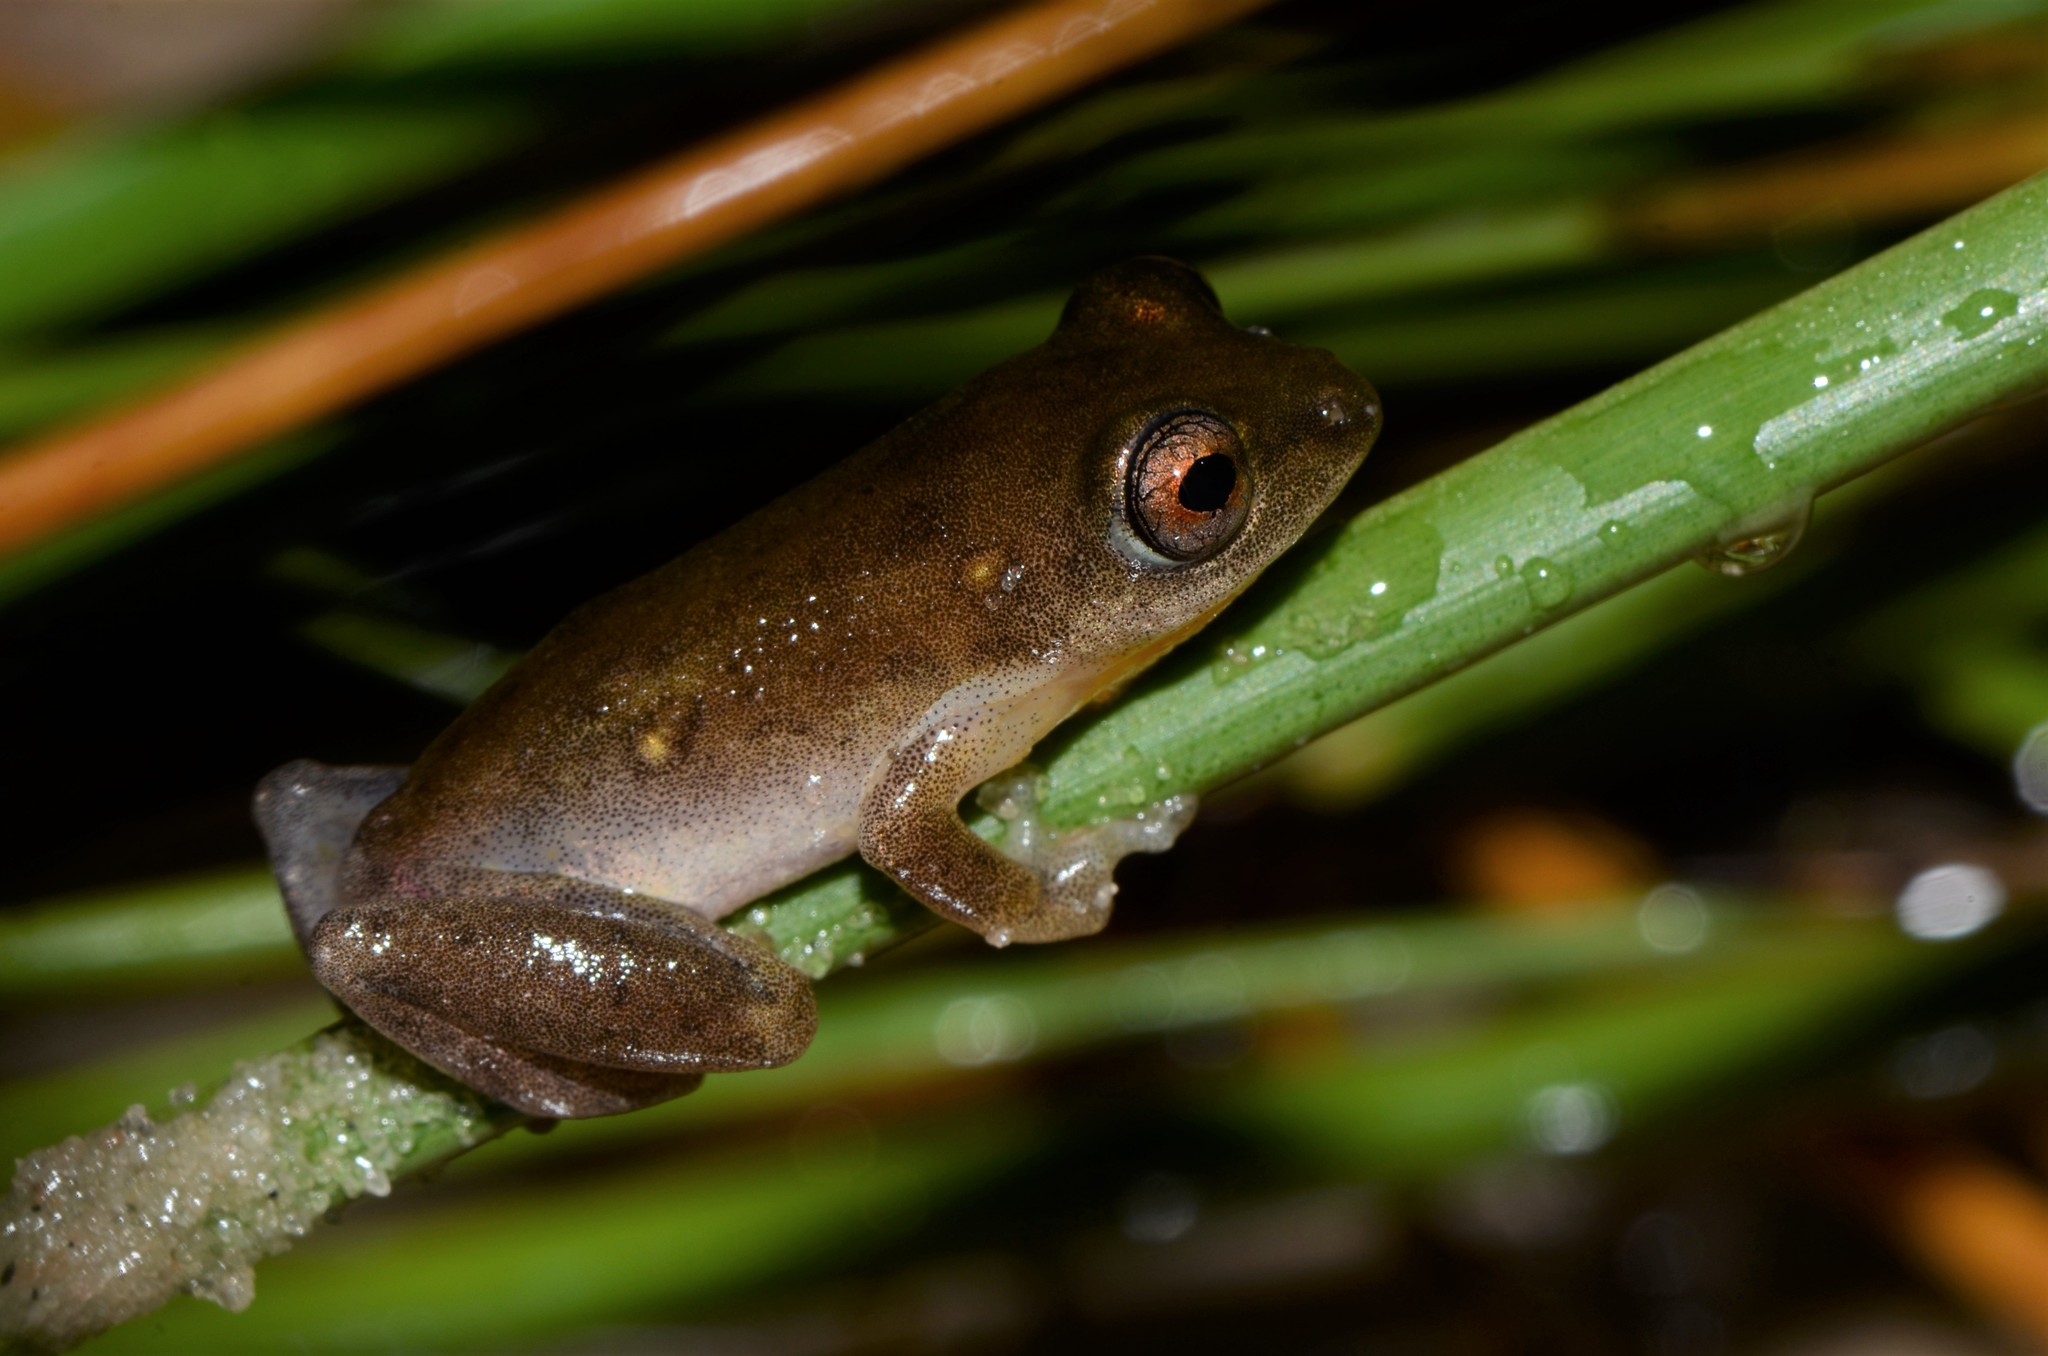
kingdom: Animalia
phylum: Chordata
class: Amphibia
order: Anura
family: Hyperoliidae
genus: Hyperolius
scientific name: Hyperolius stictus
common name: Yellow-spotted reed frog
